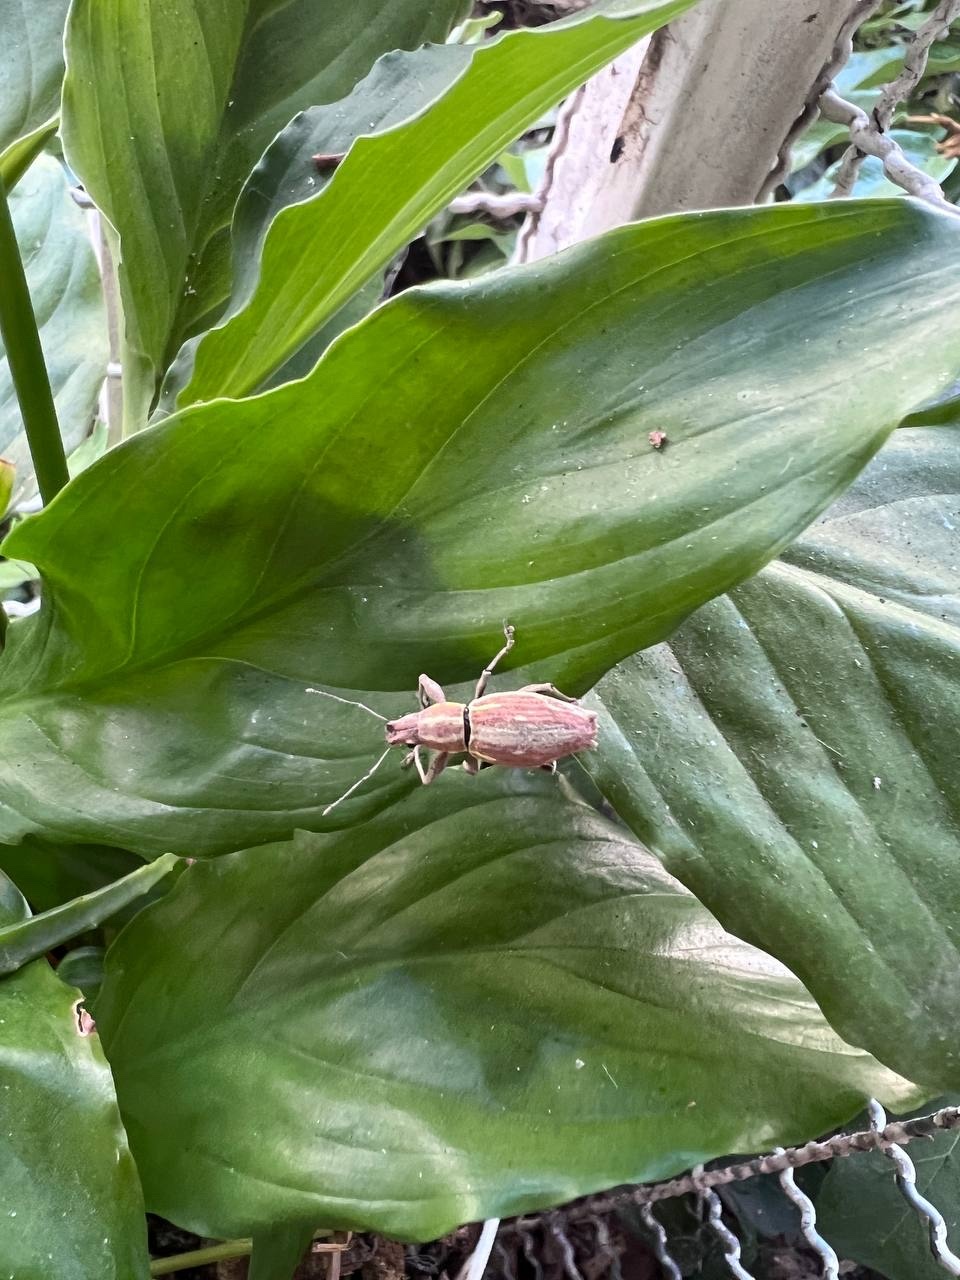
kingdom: Animalia
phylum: Arthropoda
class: Insecta
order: Coleoptera
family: Curculionidae
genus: Naupactus
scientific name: Naupactus xanthographus
